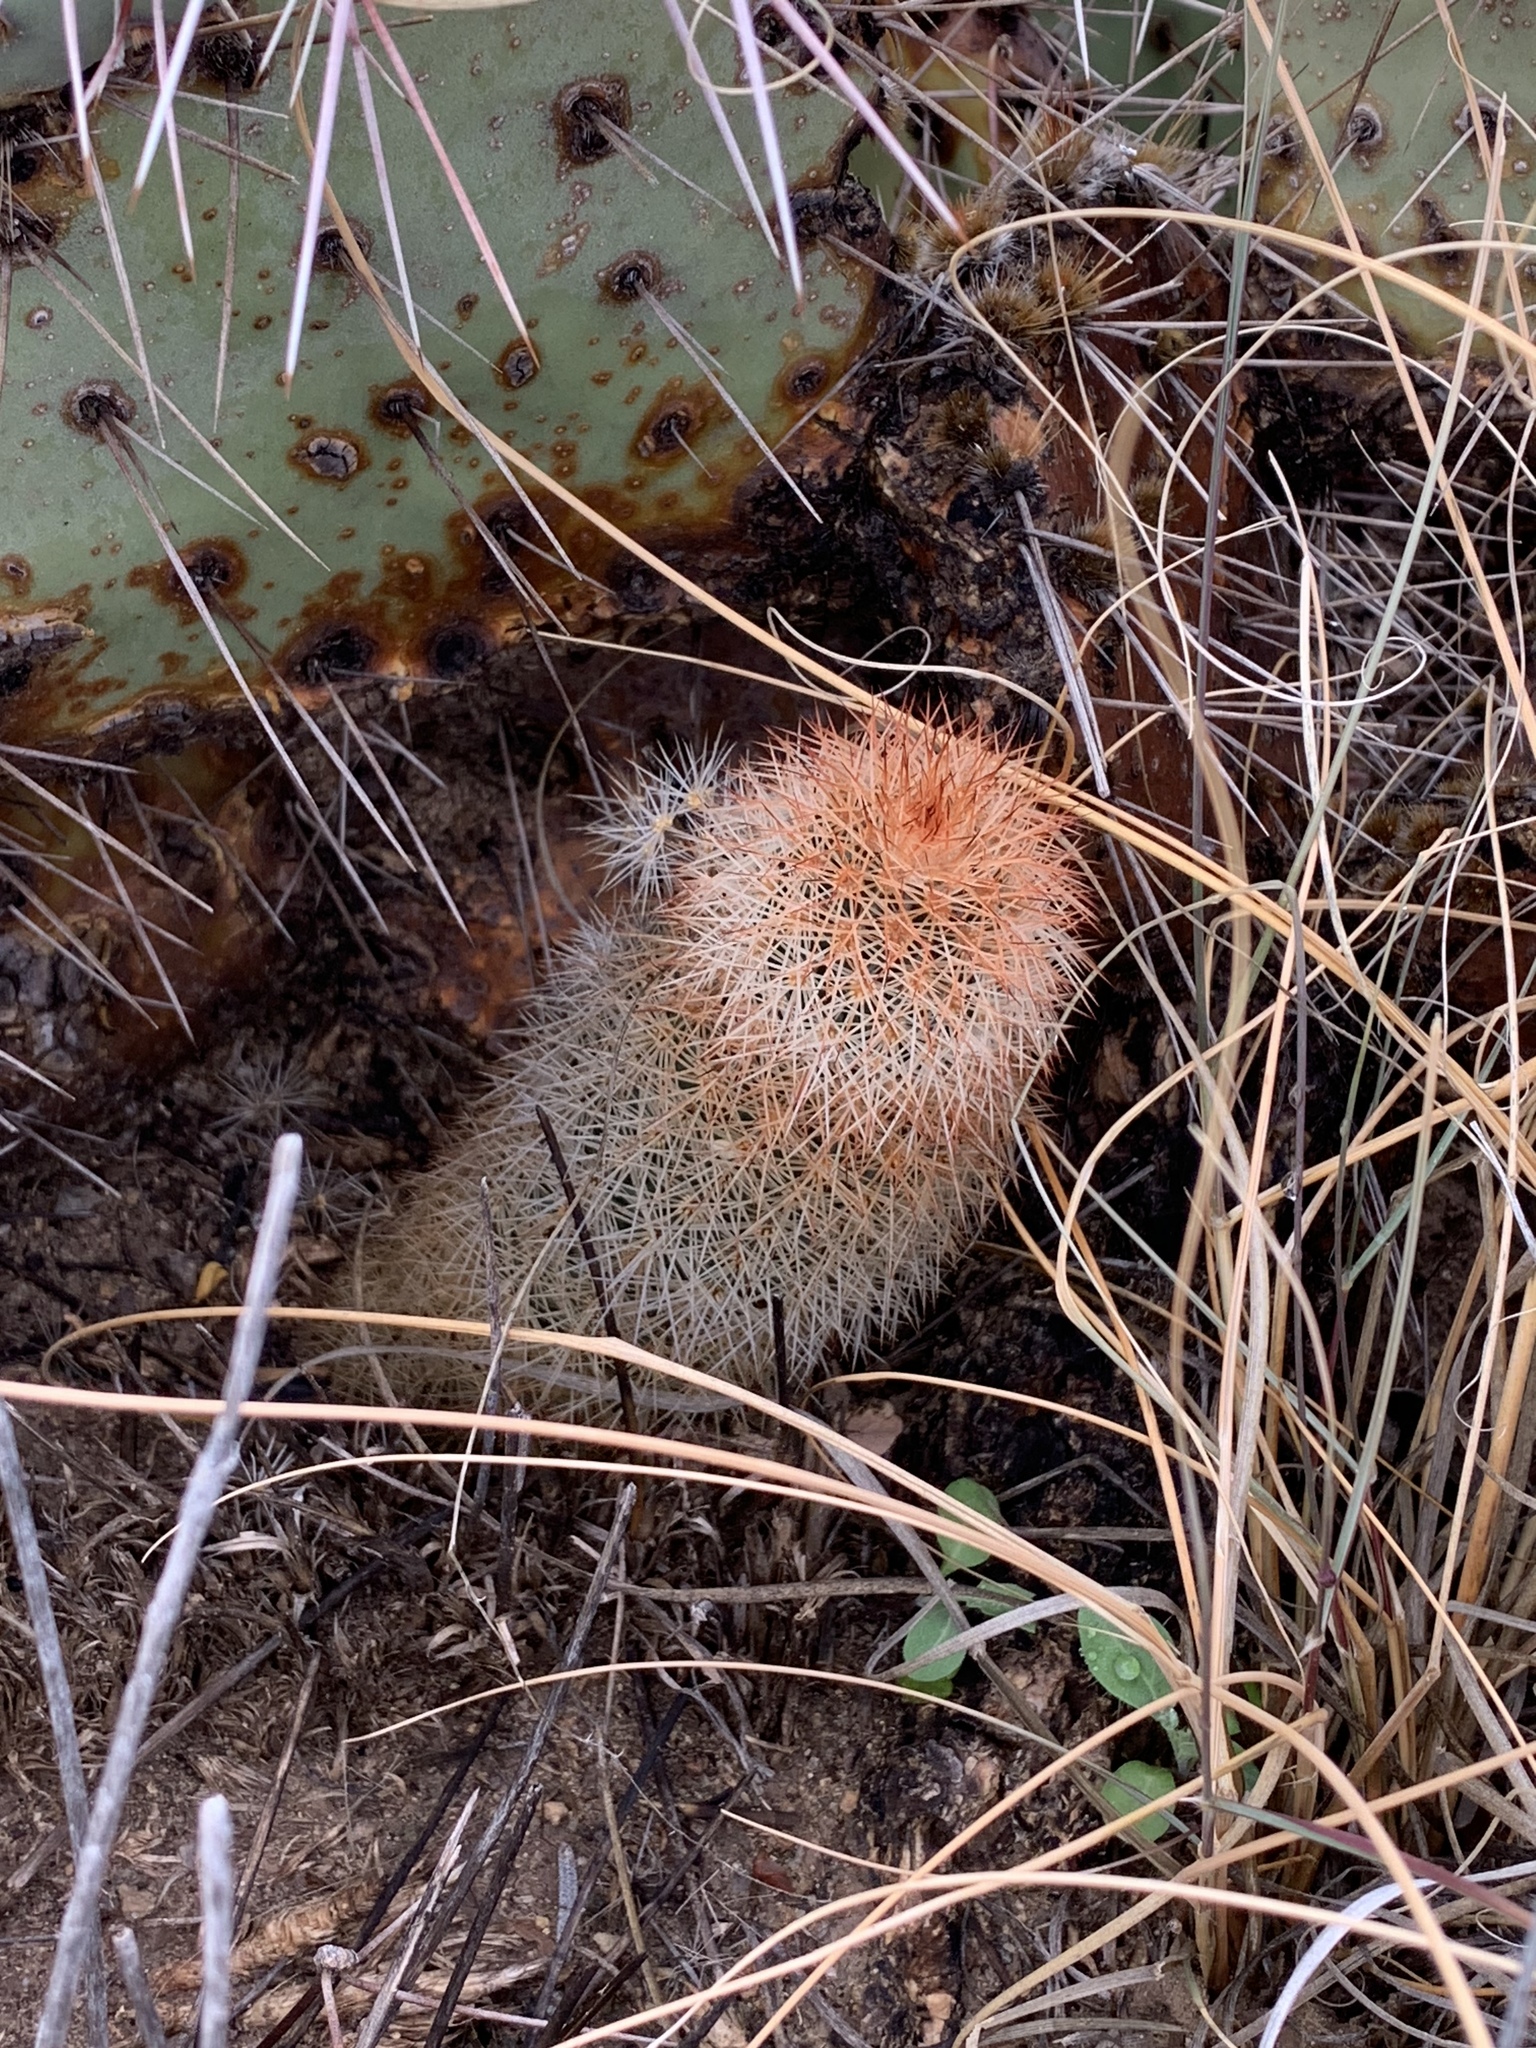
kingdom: Plantae
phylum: Tracheophyta
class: Magnoliopsida
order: Caryophyllales
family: Cactaceae
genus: Echinocereus
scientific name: Echinocereus dasyacanthus
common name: Spiny hedgehog cactus
